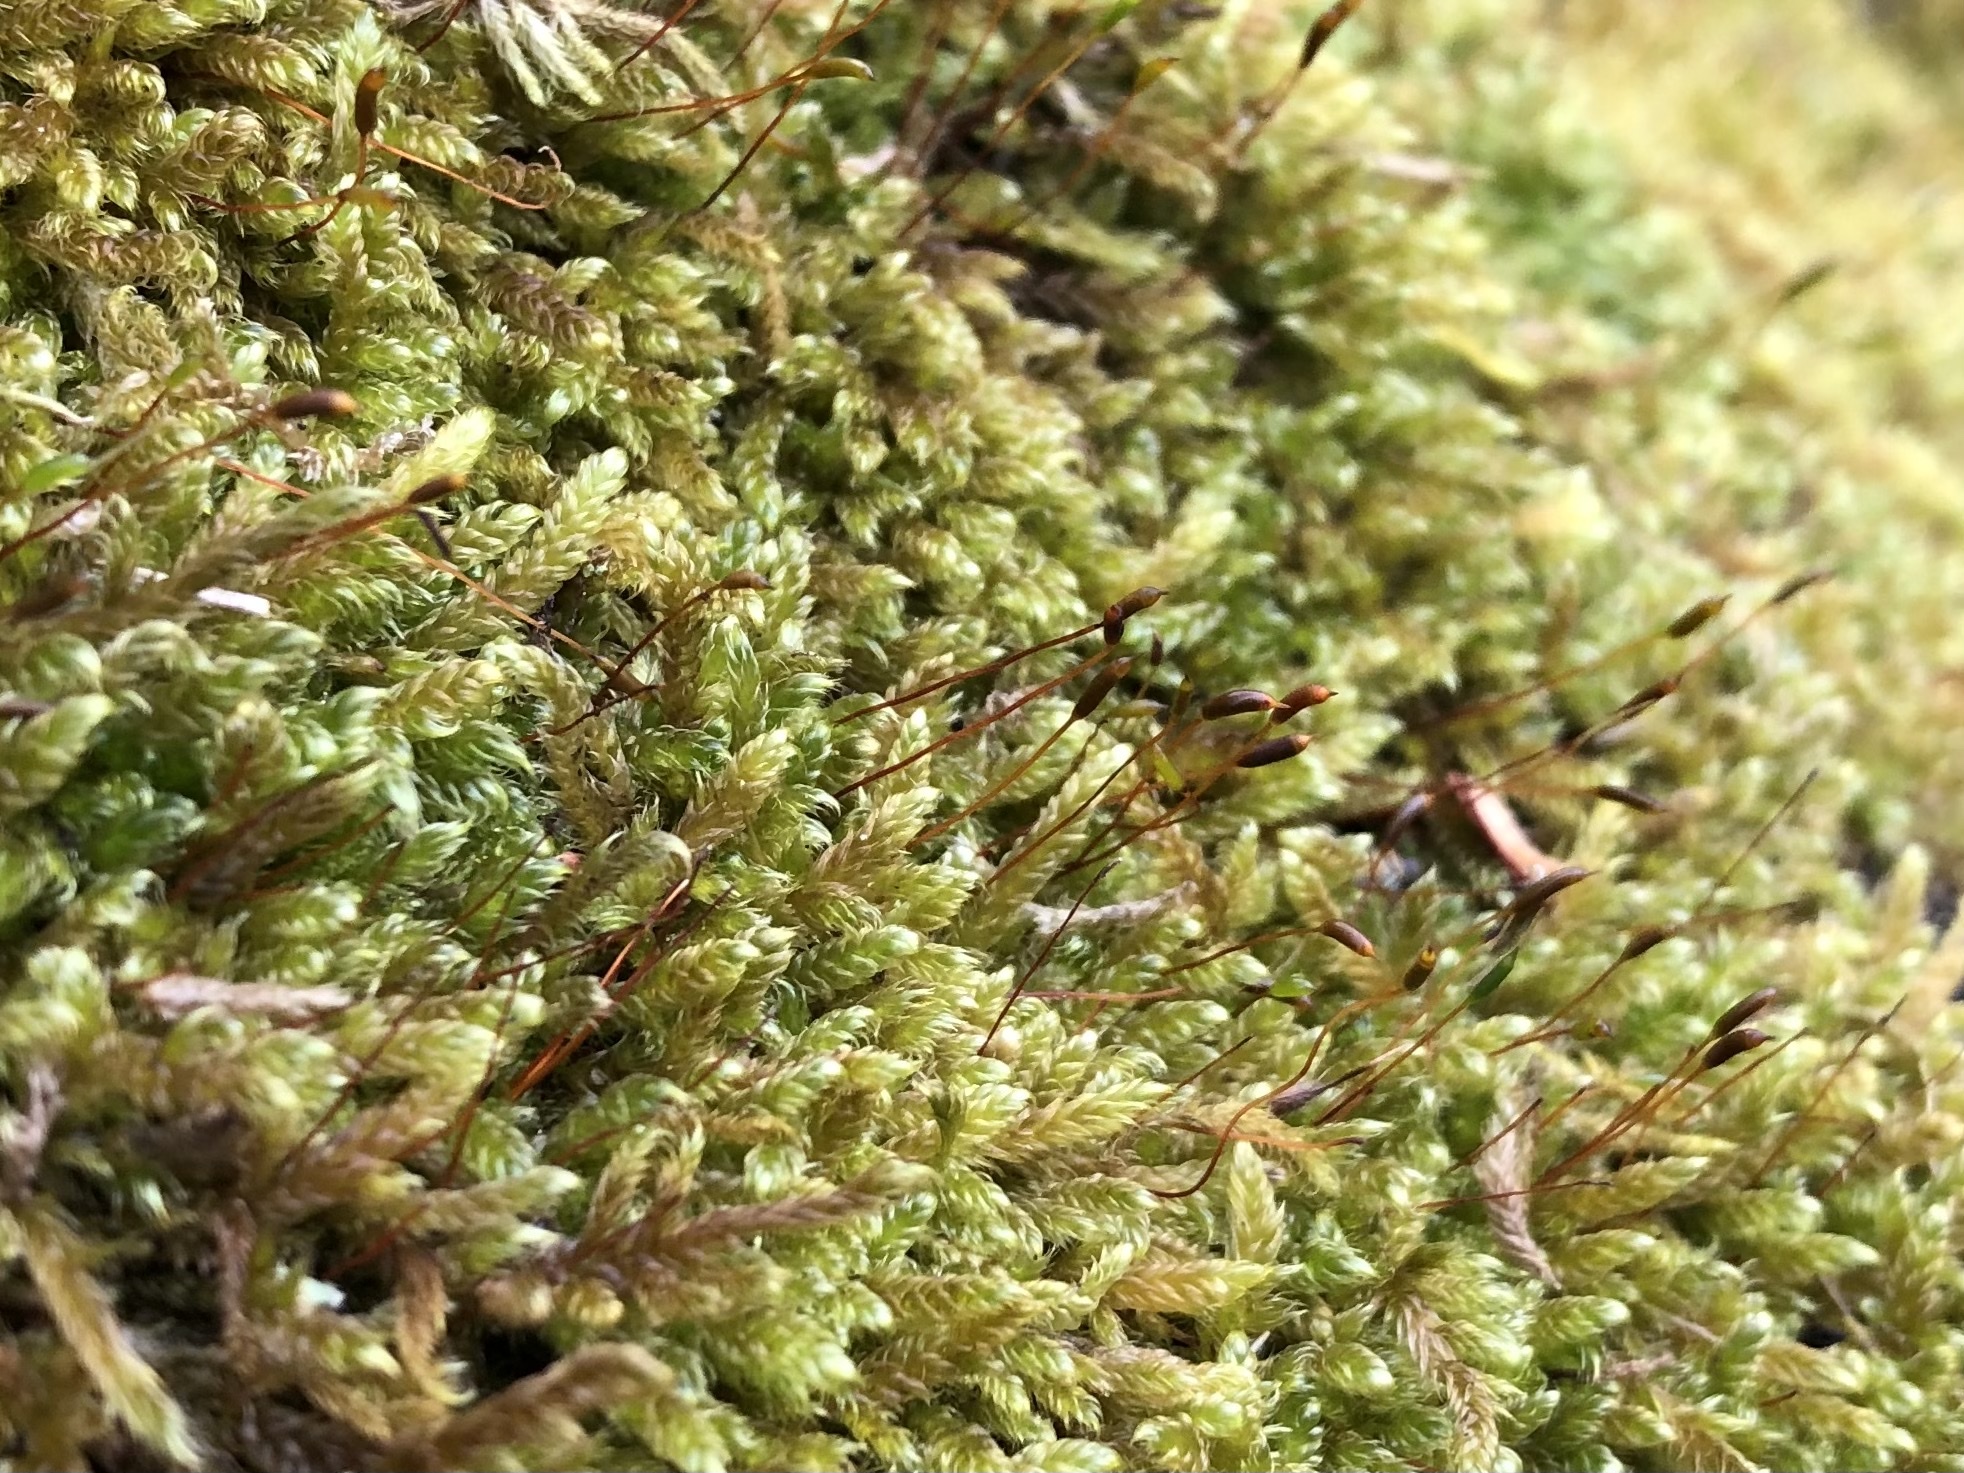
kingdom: Plantae
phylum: Bryophyta
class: Bryopsida
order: Hypnales
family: Hypnaceae
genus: Hypnum
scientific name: Hypnum cupressiforme
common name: Cypress-leaved plait-moss
